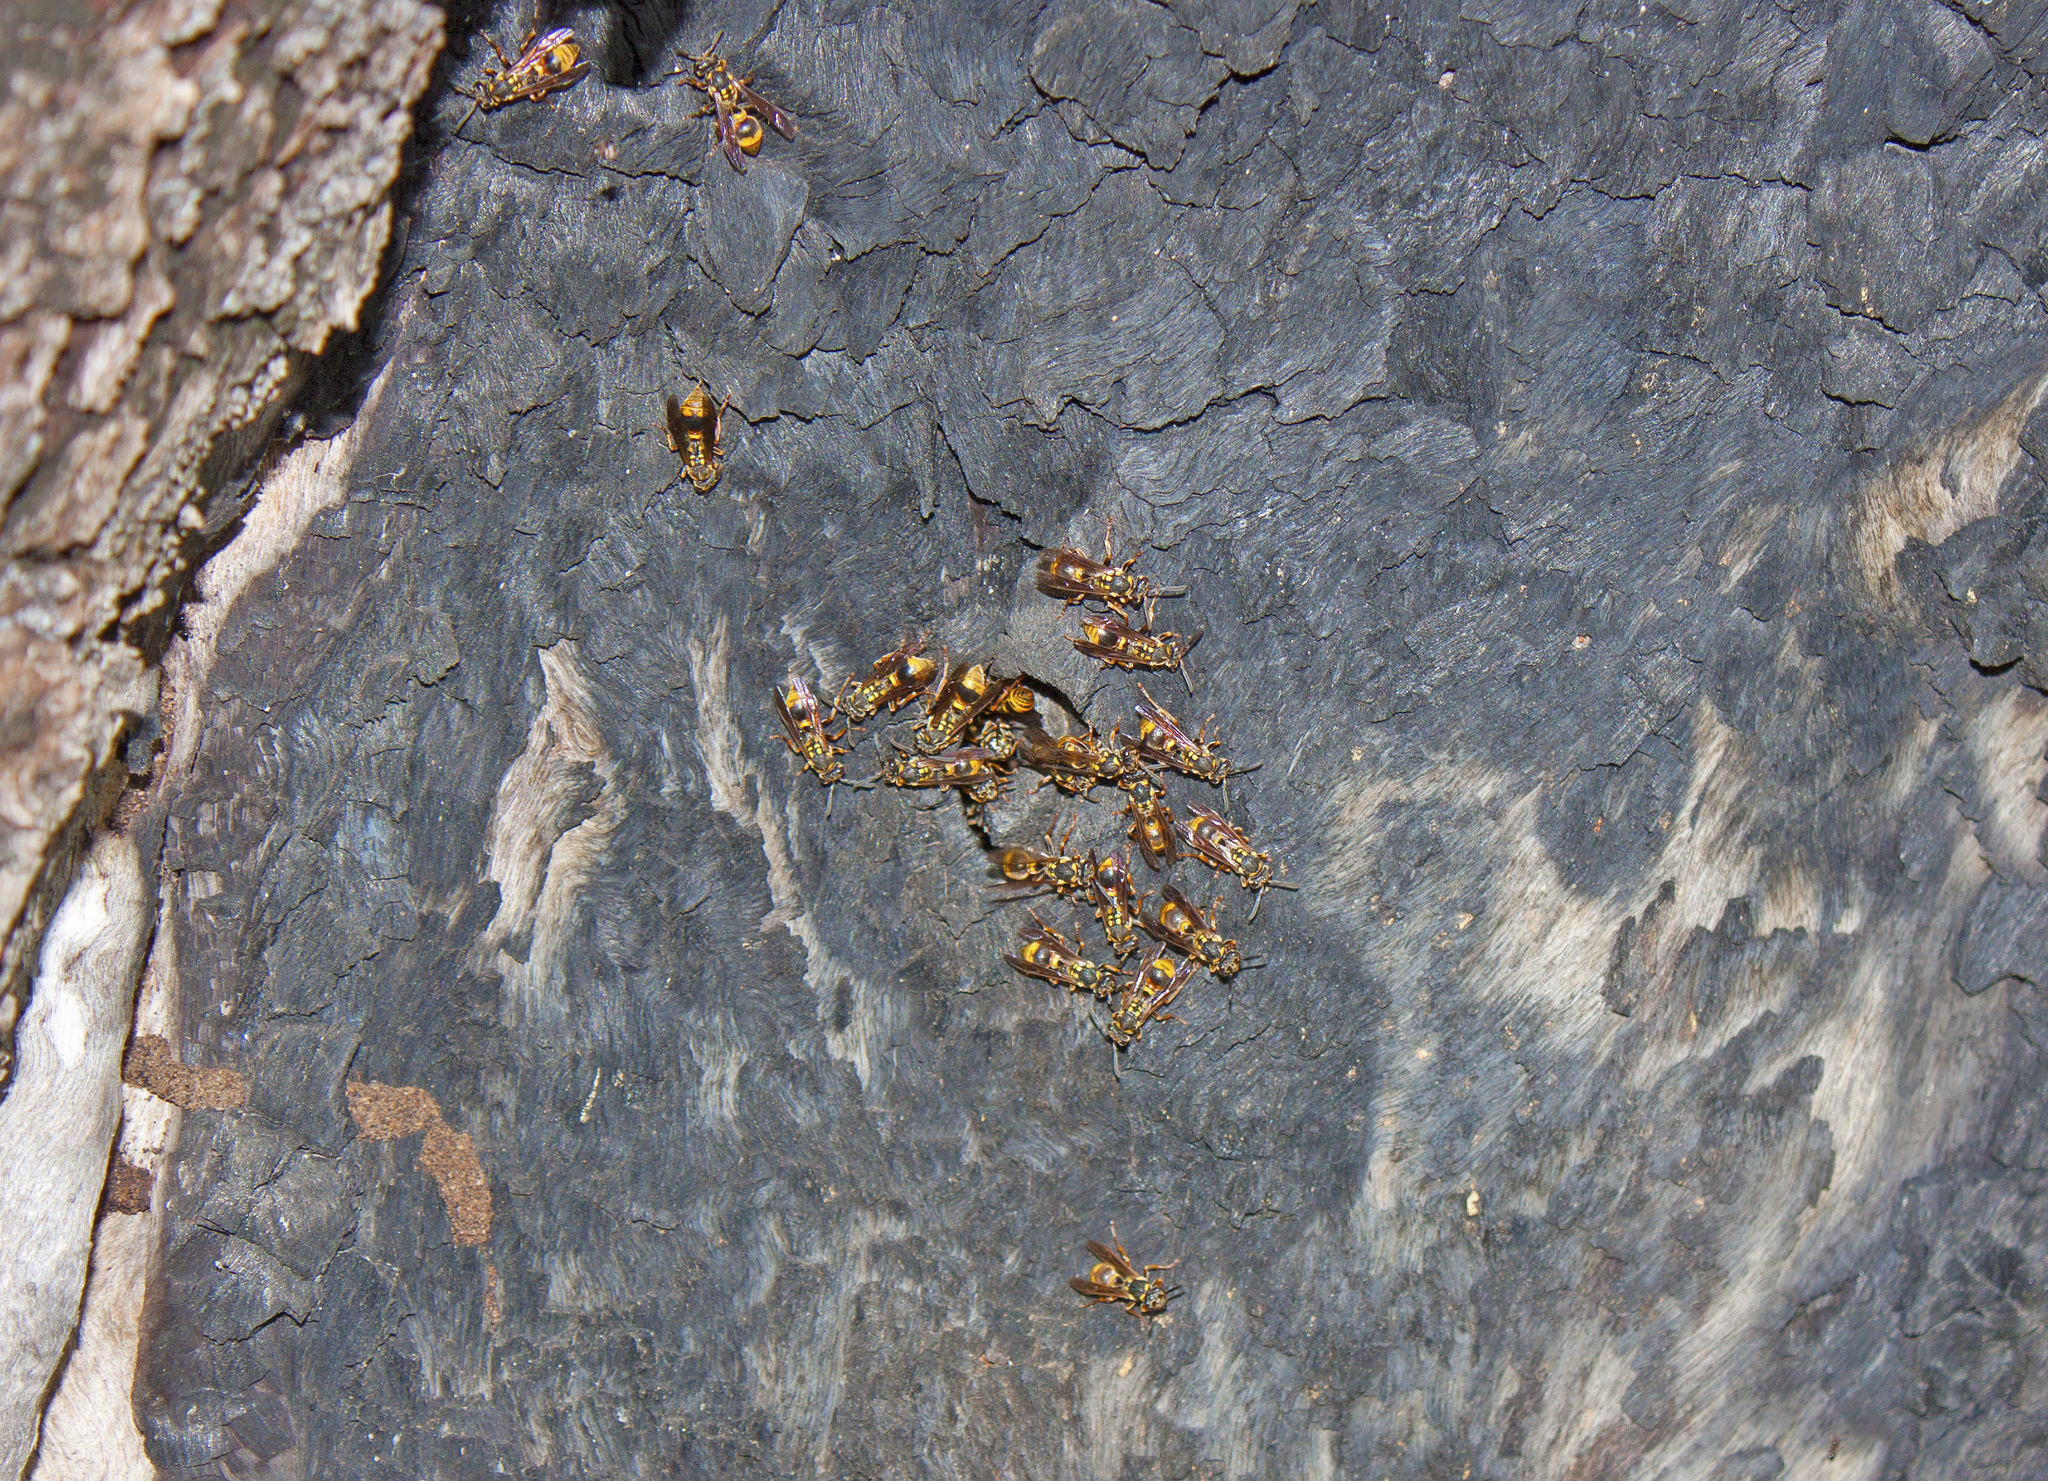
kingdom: Animalia
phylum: Arthropoda
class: Insecta
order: Hymenoptera
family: Vespidae
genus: Ropalidia
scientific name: Ropalidia socialistica
